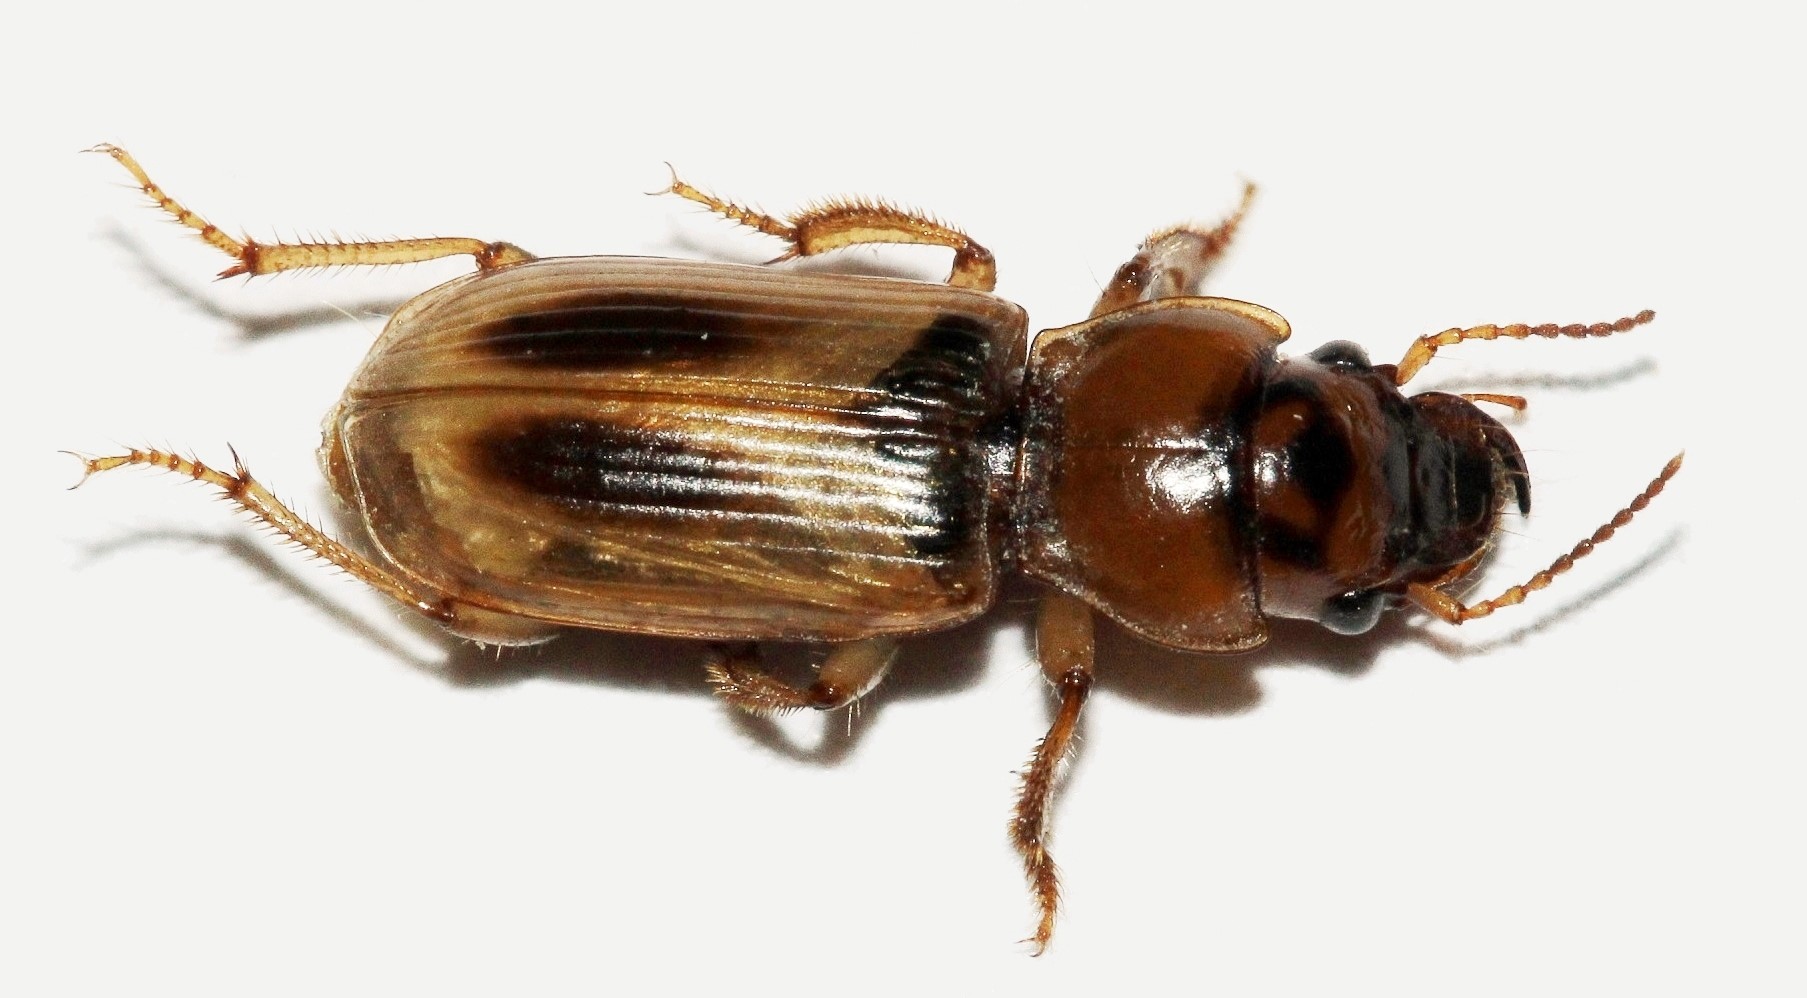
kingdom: Animalia
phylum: Arthropoda
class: Insecta
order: Coleoptera
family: Carabidae
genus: Daptus
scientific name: Daptus vittatus
